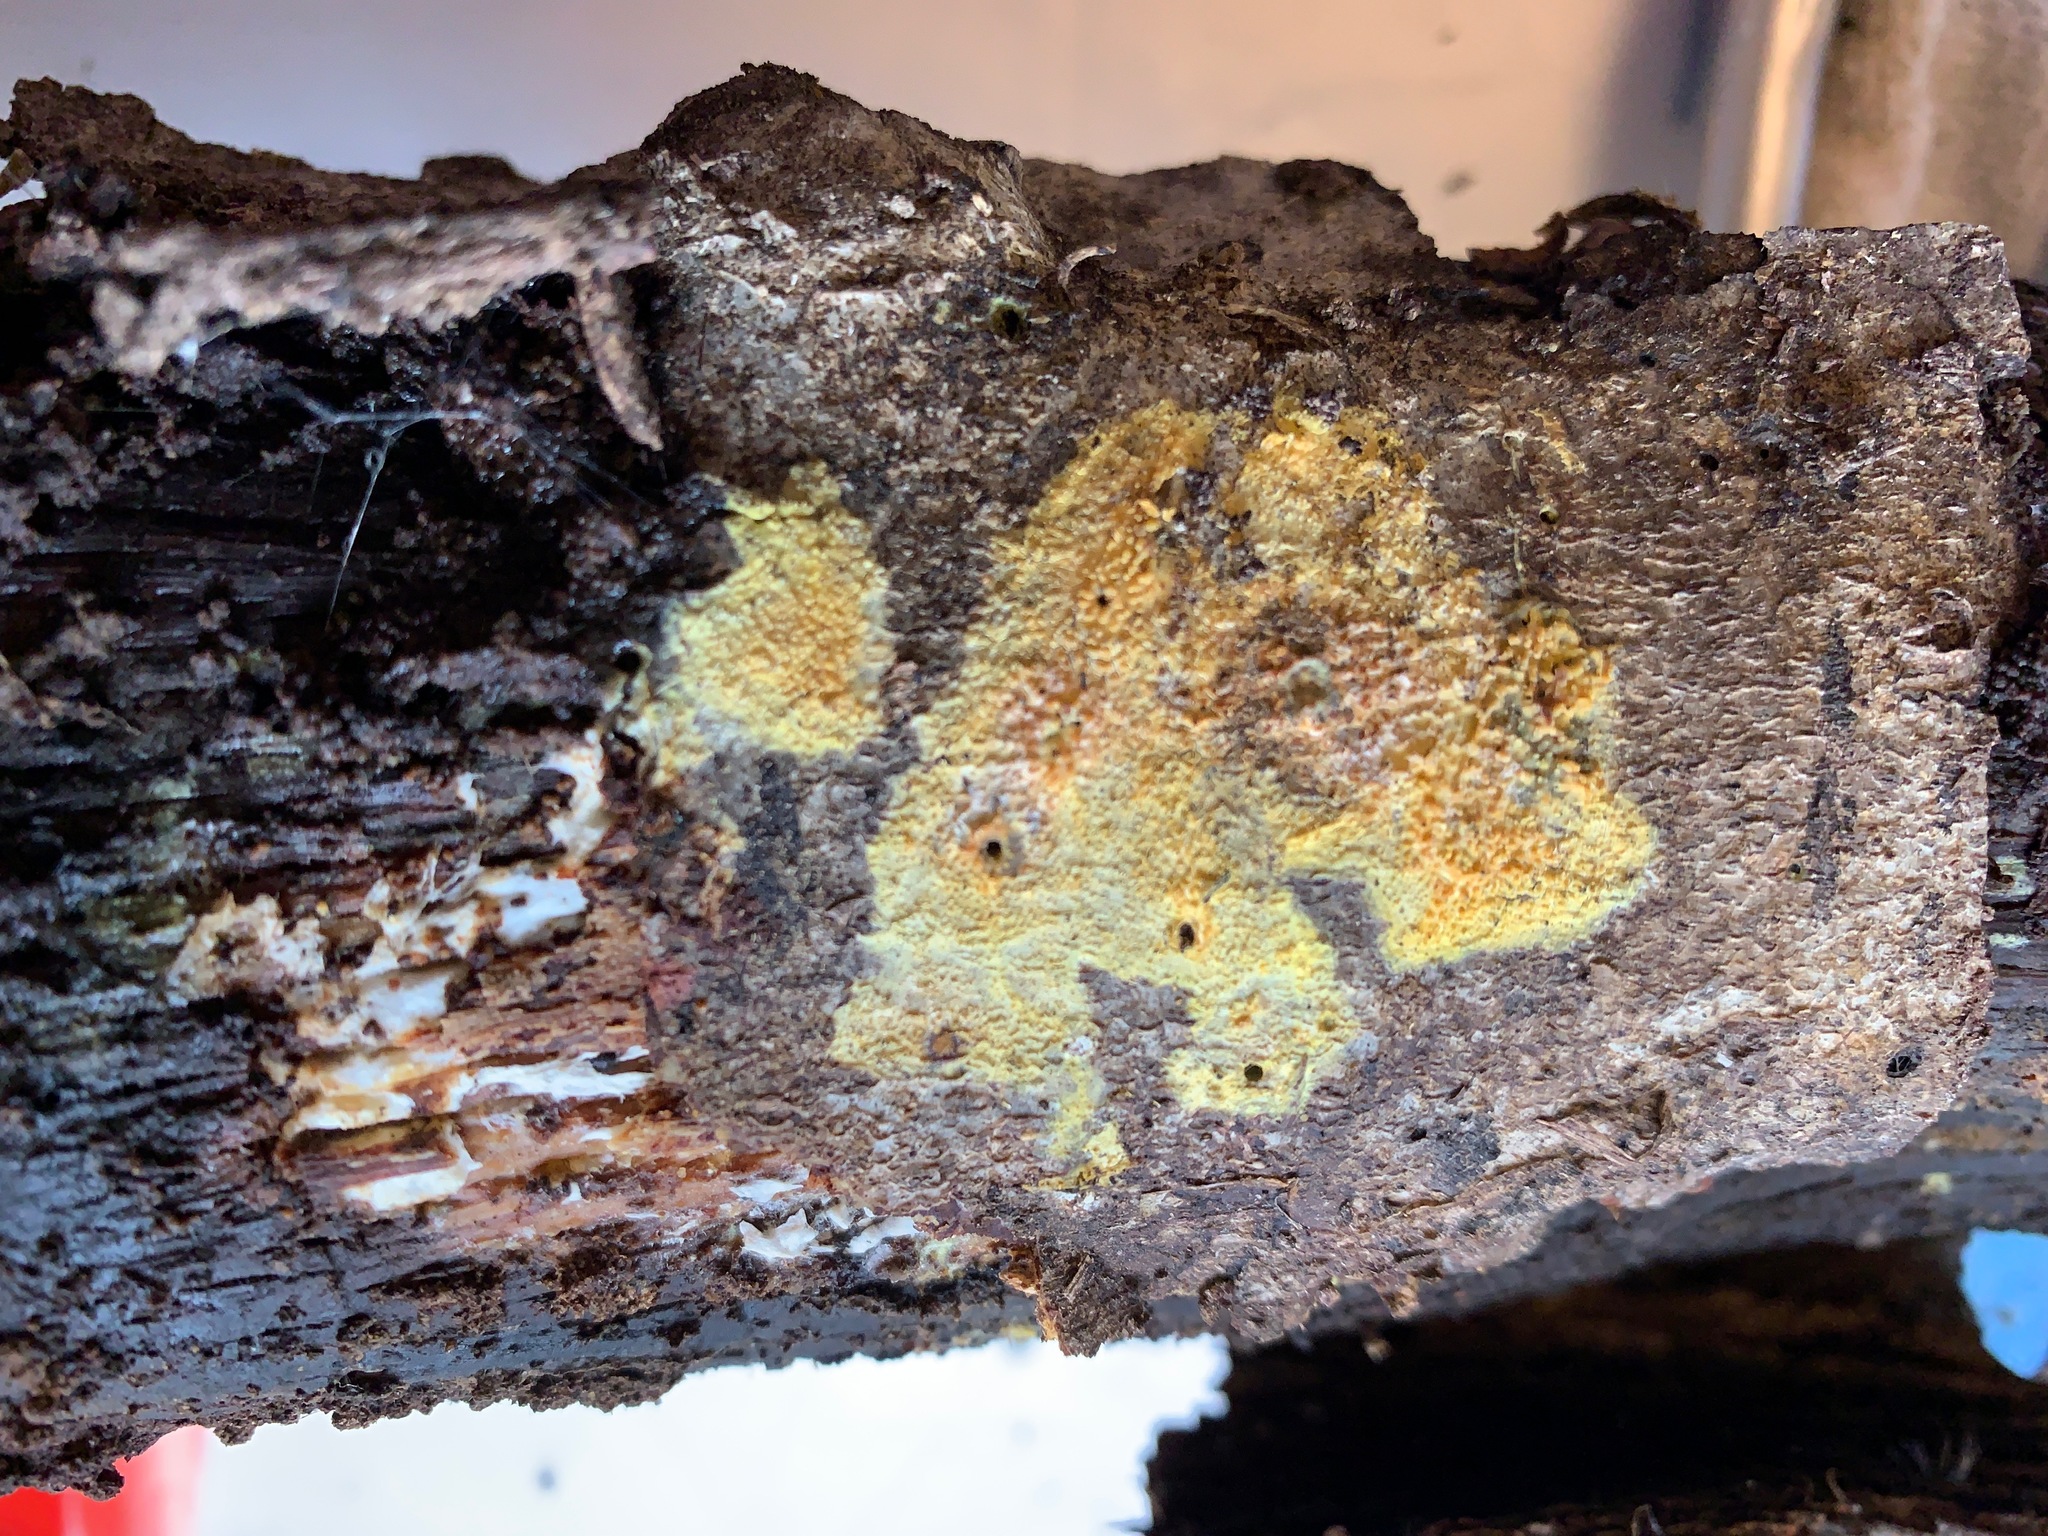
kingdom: Fungi
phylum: Basidiomycota
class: Agaricomycetes
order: Polyporales
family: Meruliaceae
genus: Mycoacia
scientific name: Mycoacia aurea
